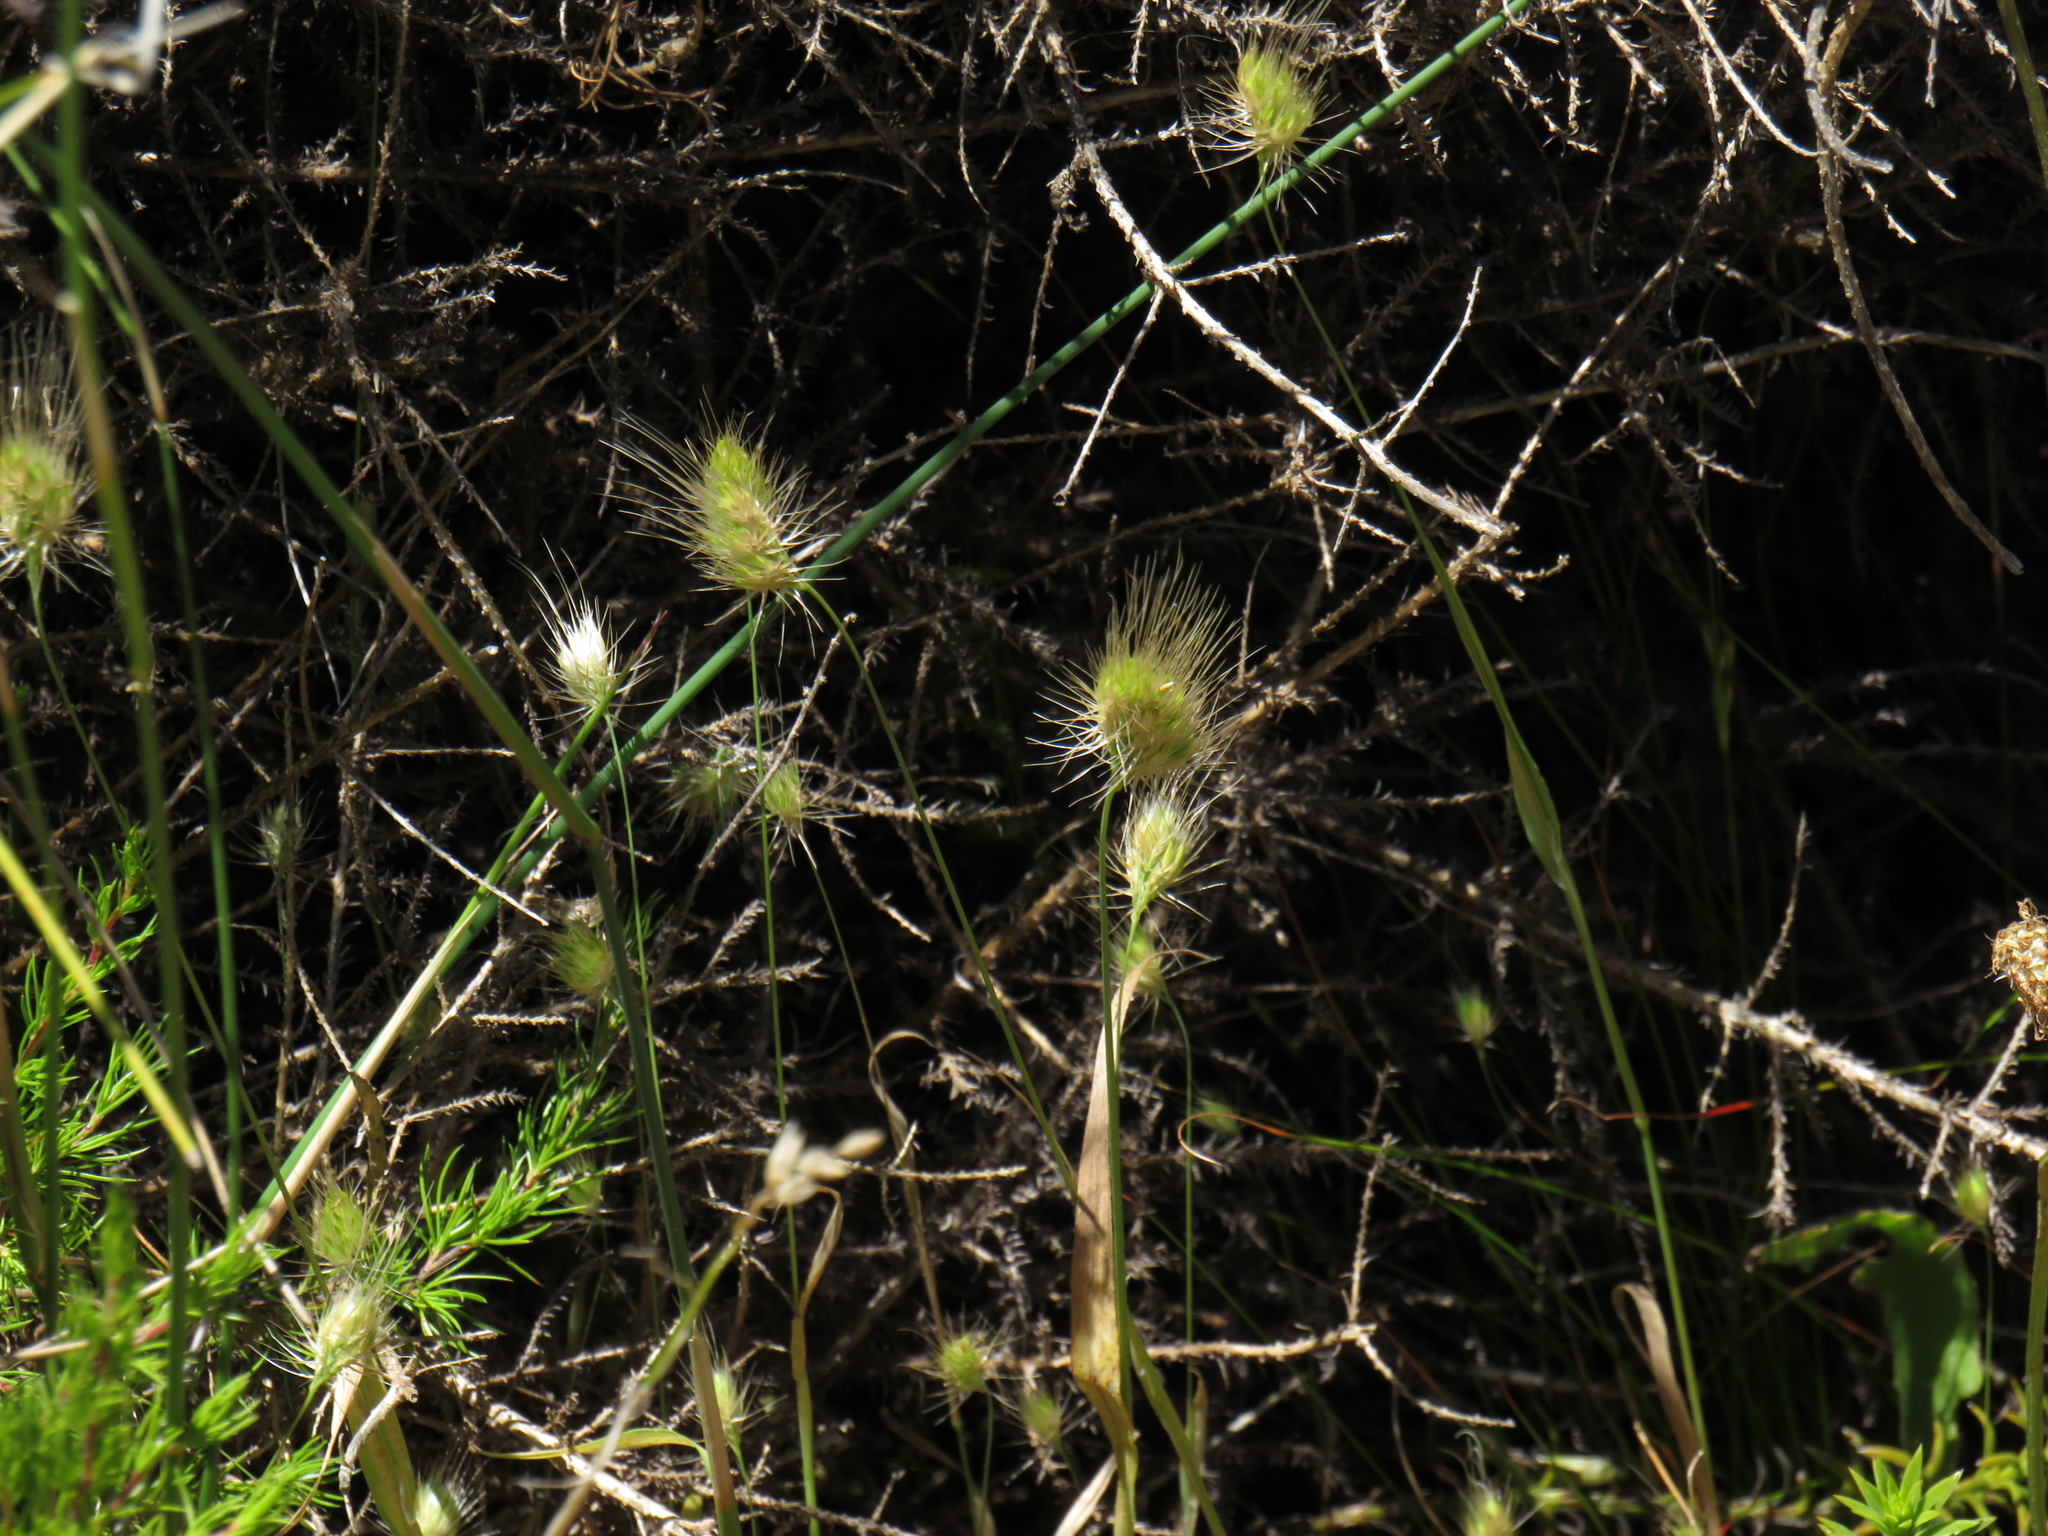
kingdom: Plantae
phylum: Tracheophyta
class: Liliopsida
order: Poales
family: Poaceae
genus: Cynosurus
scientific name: Cynosurus echinatus
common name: Rough dog's-tail
